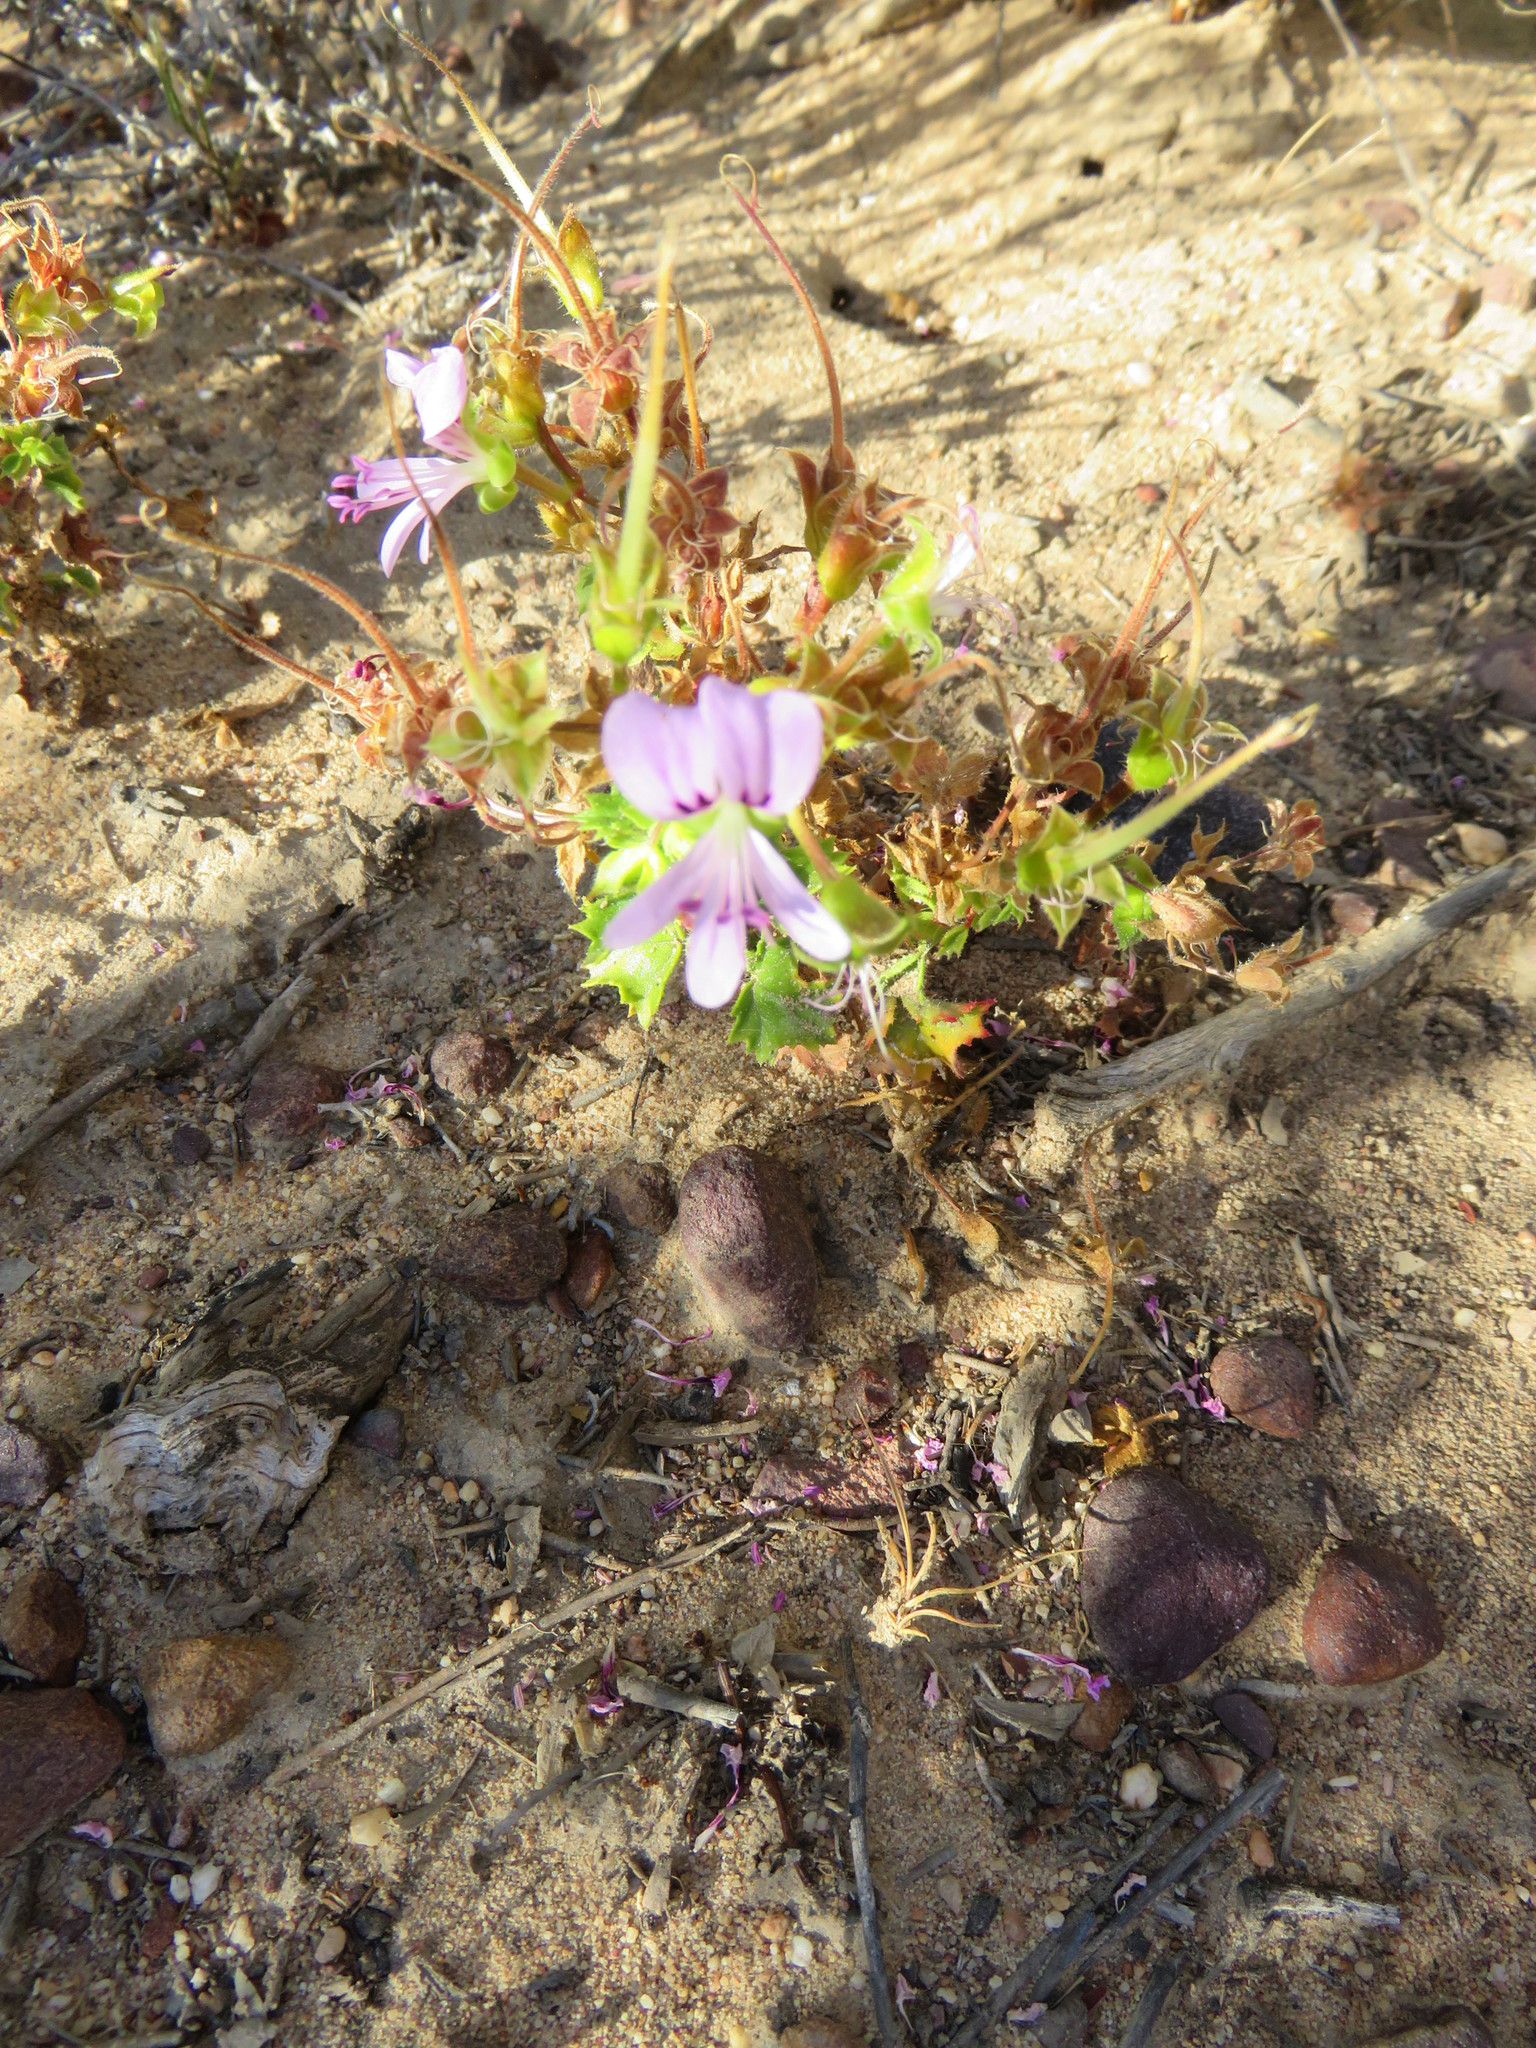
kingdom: Plantae
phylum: Tracheophyta
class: Magnoliopsida
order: Geraniales
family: Geraniaceae
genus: Pelargonium
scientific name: Pelargonium englerianum
